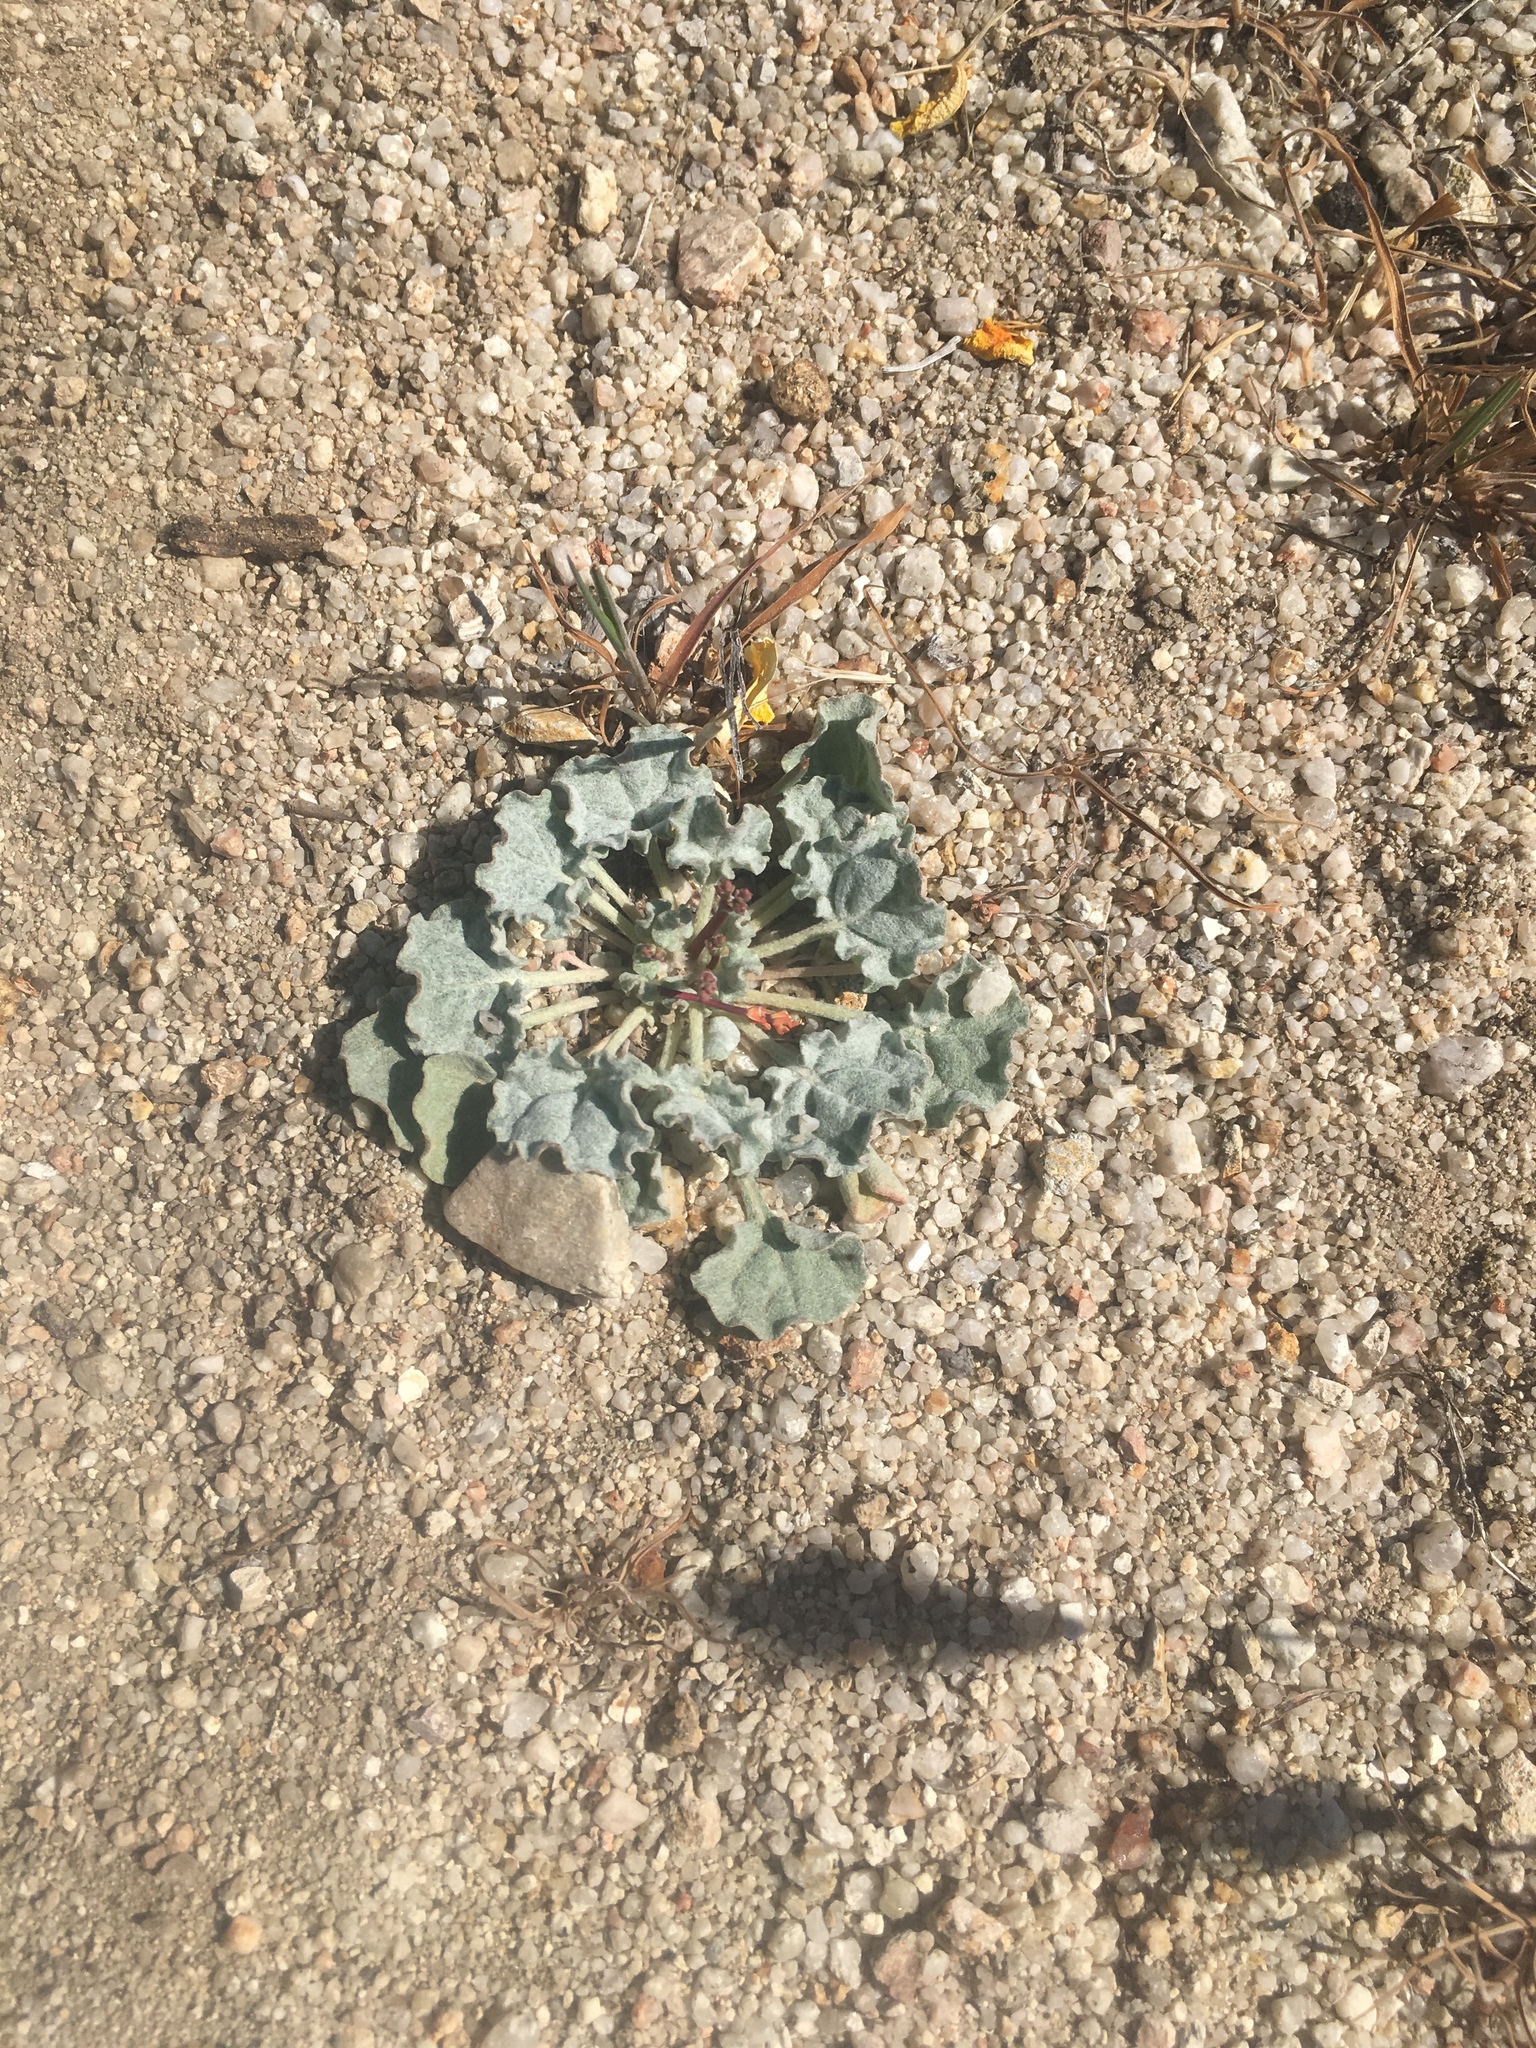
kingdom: Plantae
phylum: Tracheophyta
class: Magnoliopsida
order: Caryophyllales
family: Polygonaceae
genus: Eriogonum
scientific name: Eriogonum elegans
